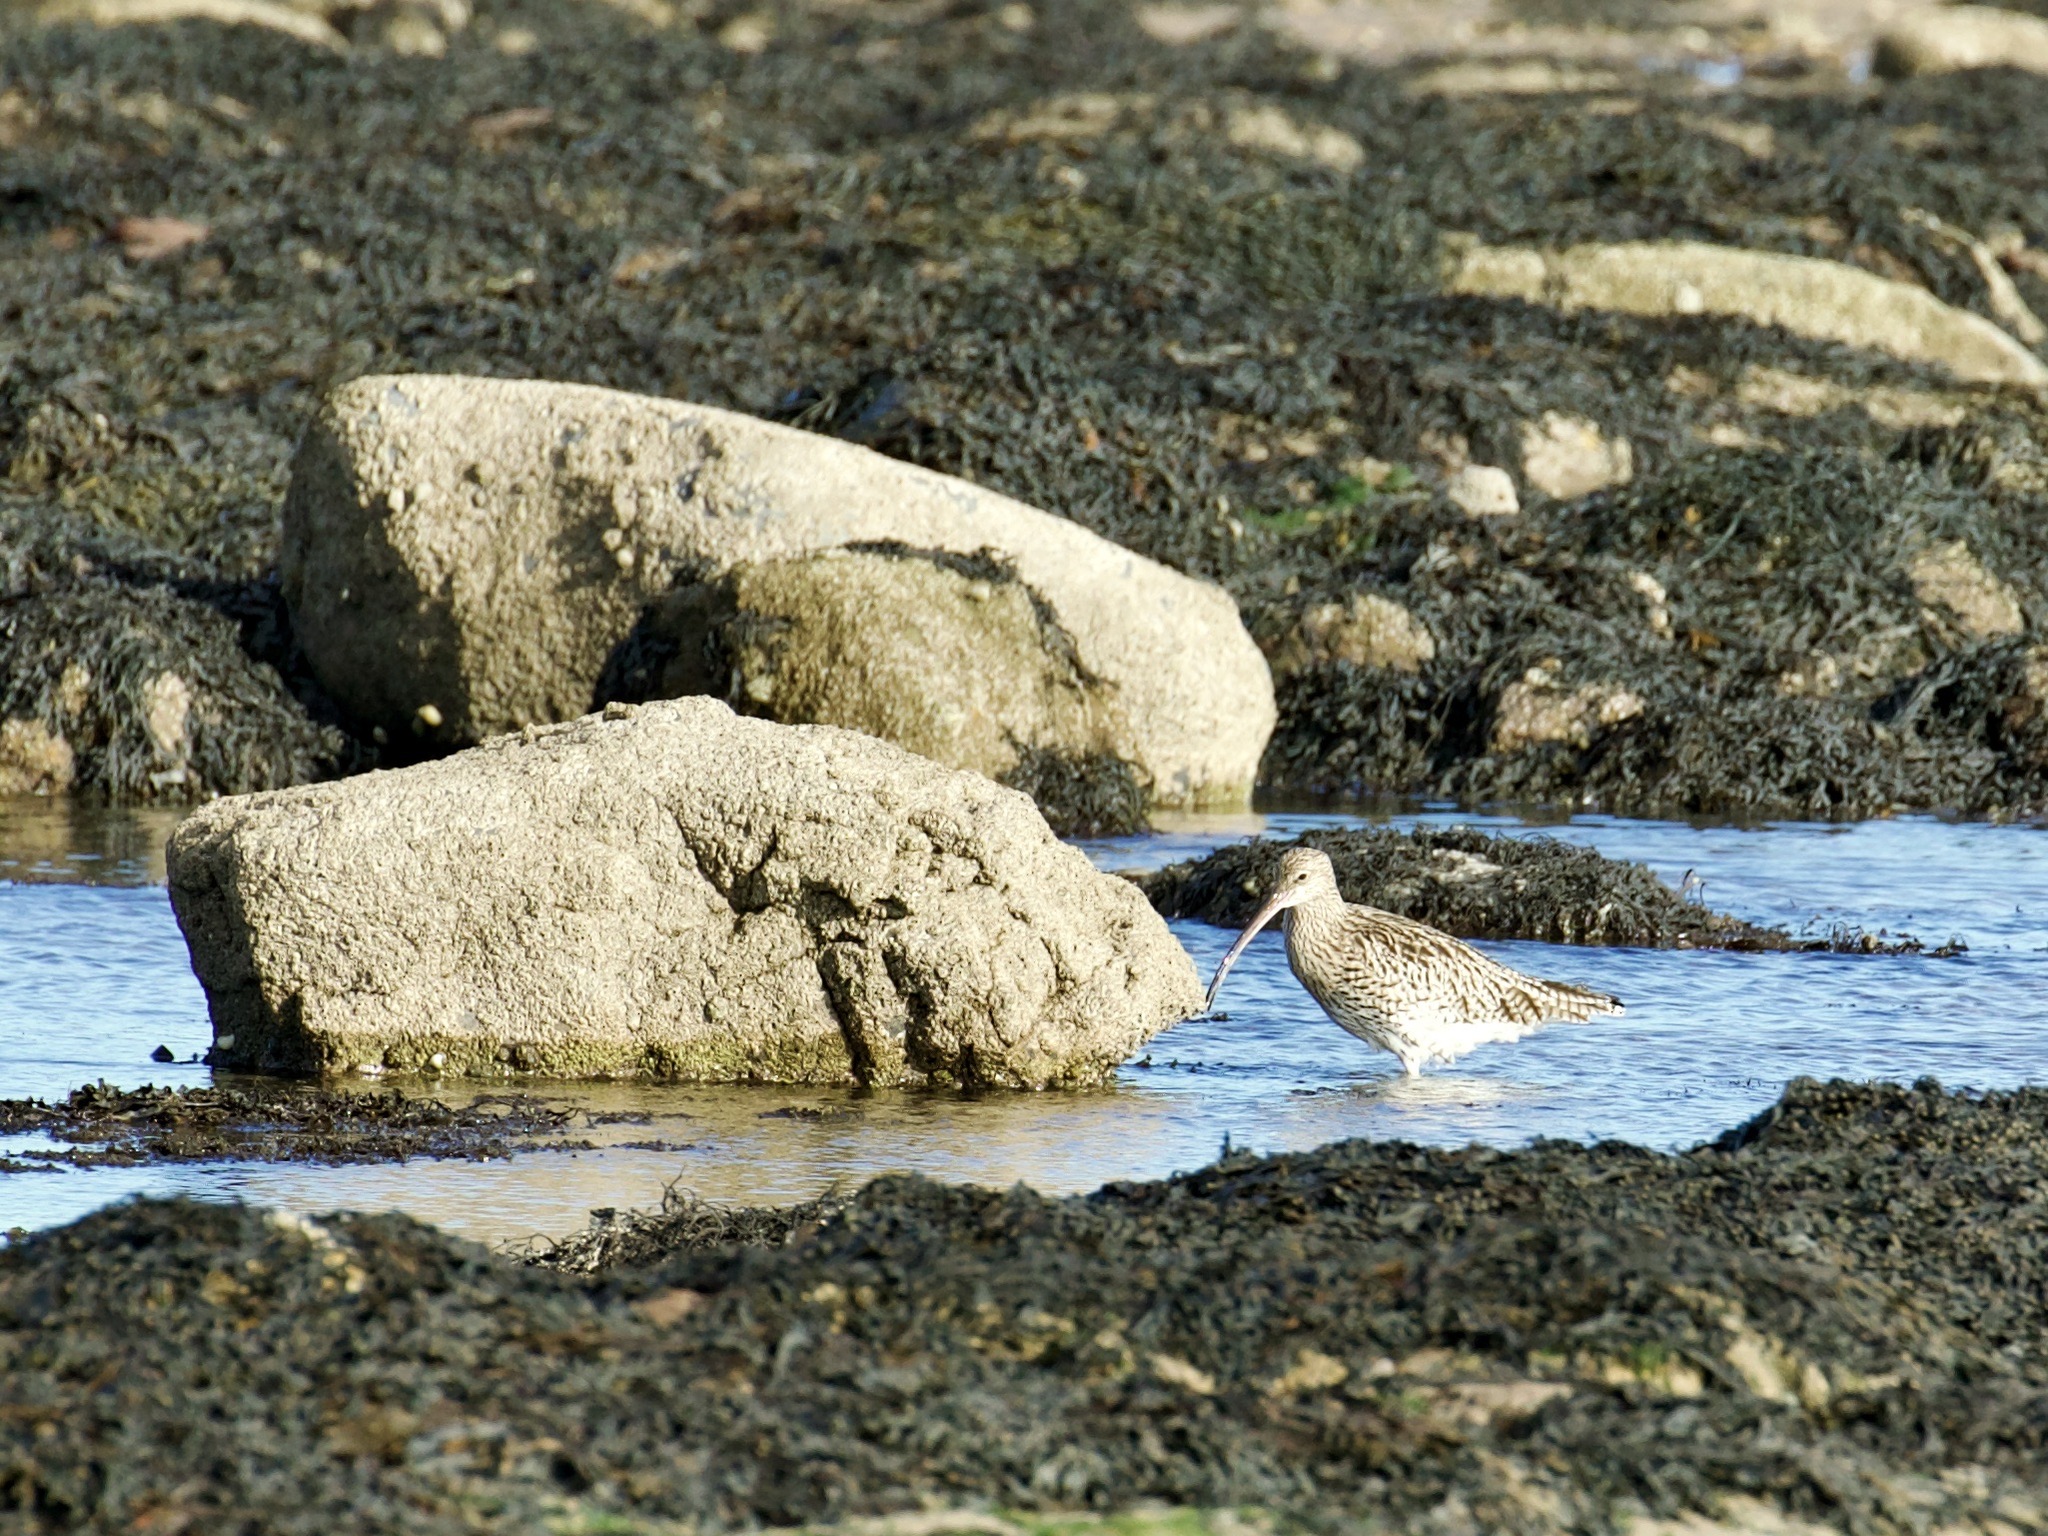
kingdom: Animalia
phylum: Chordata
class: Aves
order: Charadriiformes
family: Scolopacidae
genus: Numenius
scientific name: Numenius arquata
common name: Eurasian curlew
